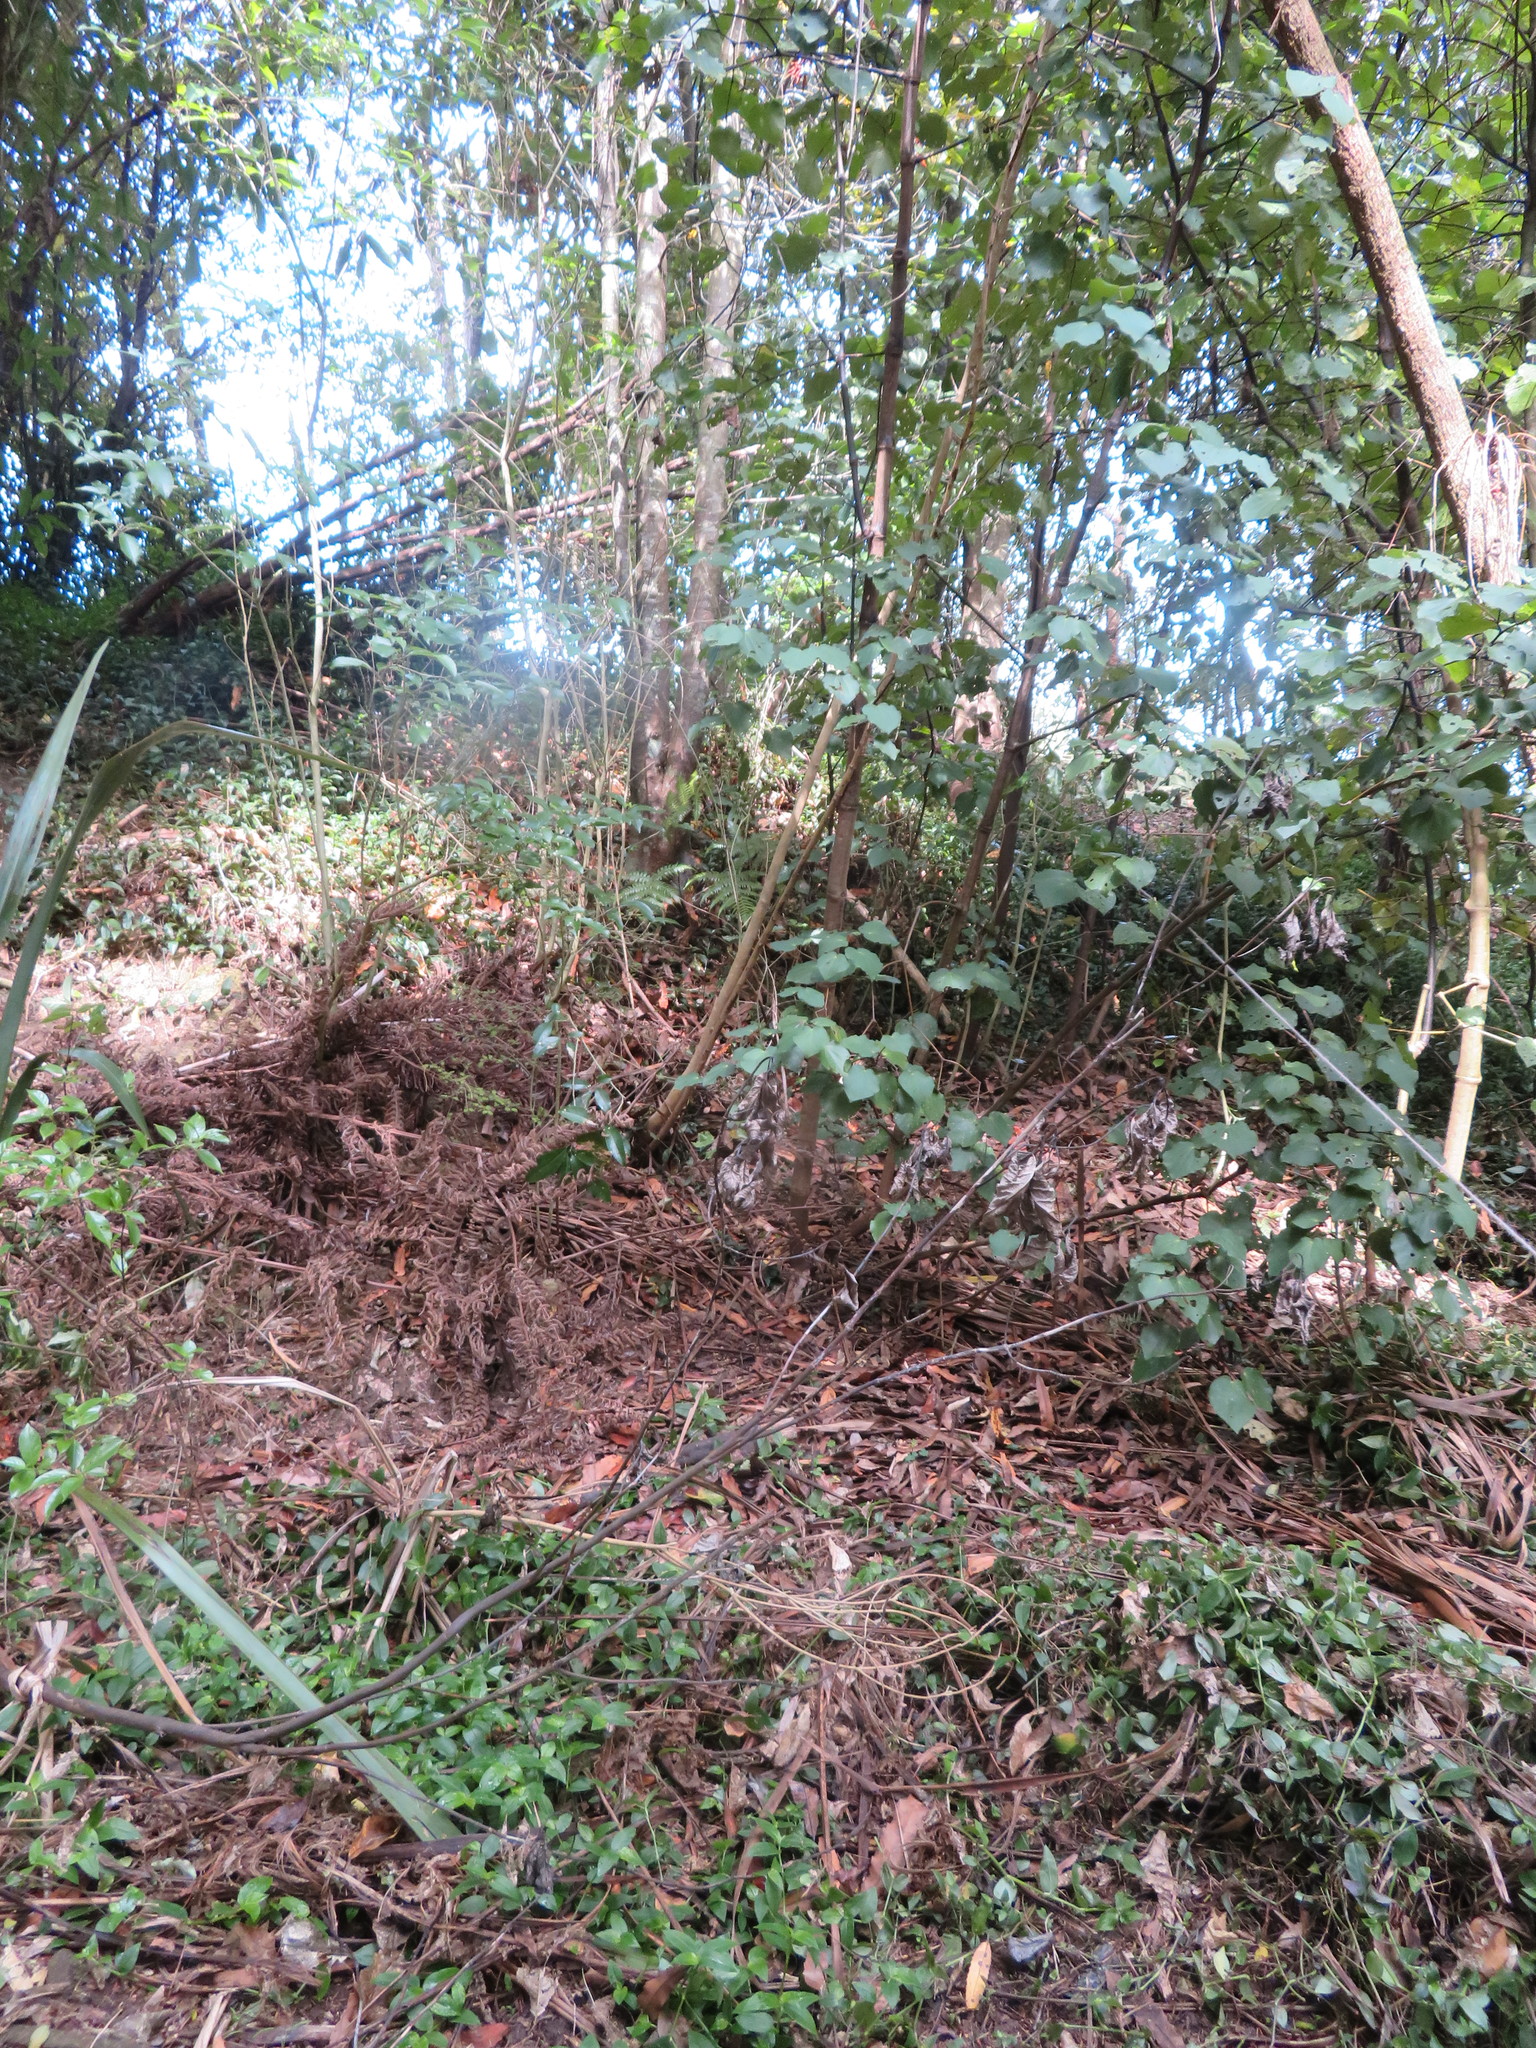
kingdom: Plantae
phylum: Tracheophyta
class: Magnoliopsida
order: Piperales
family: Piperaceae
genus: Macropiper
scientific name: Macropiper excelsum
